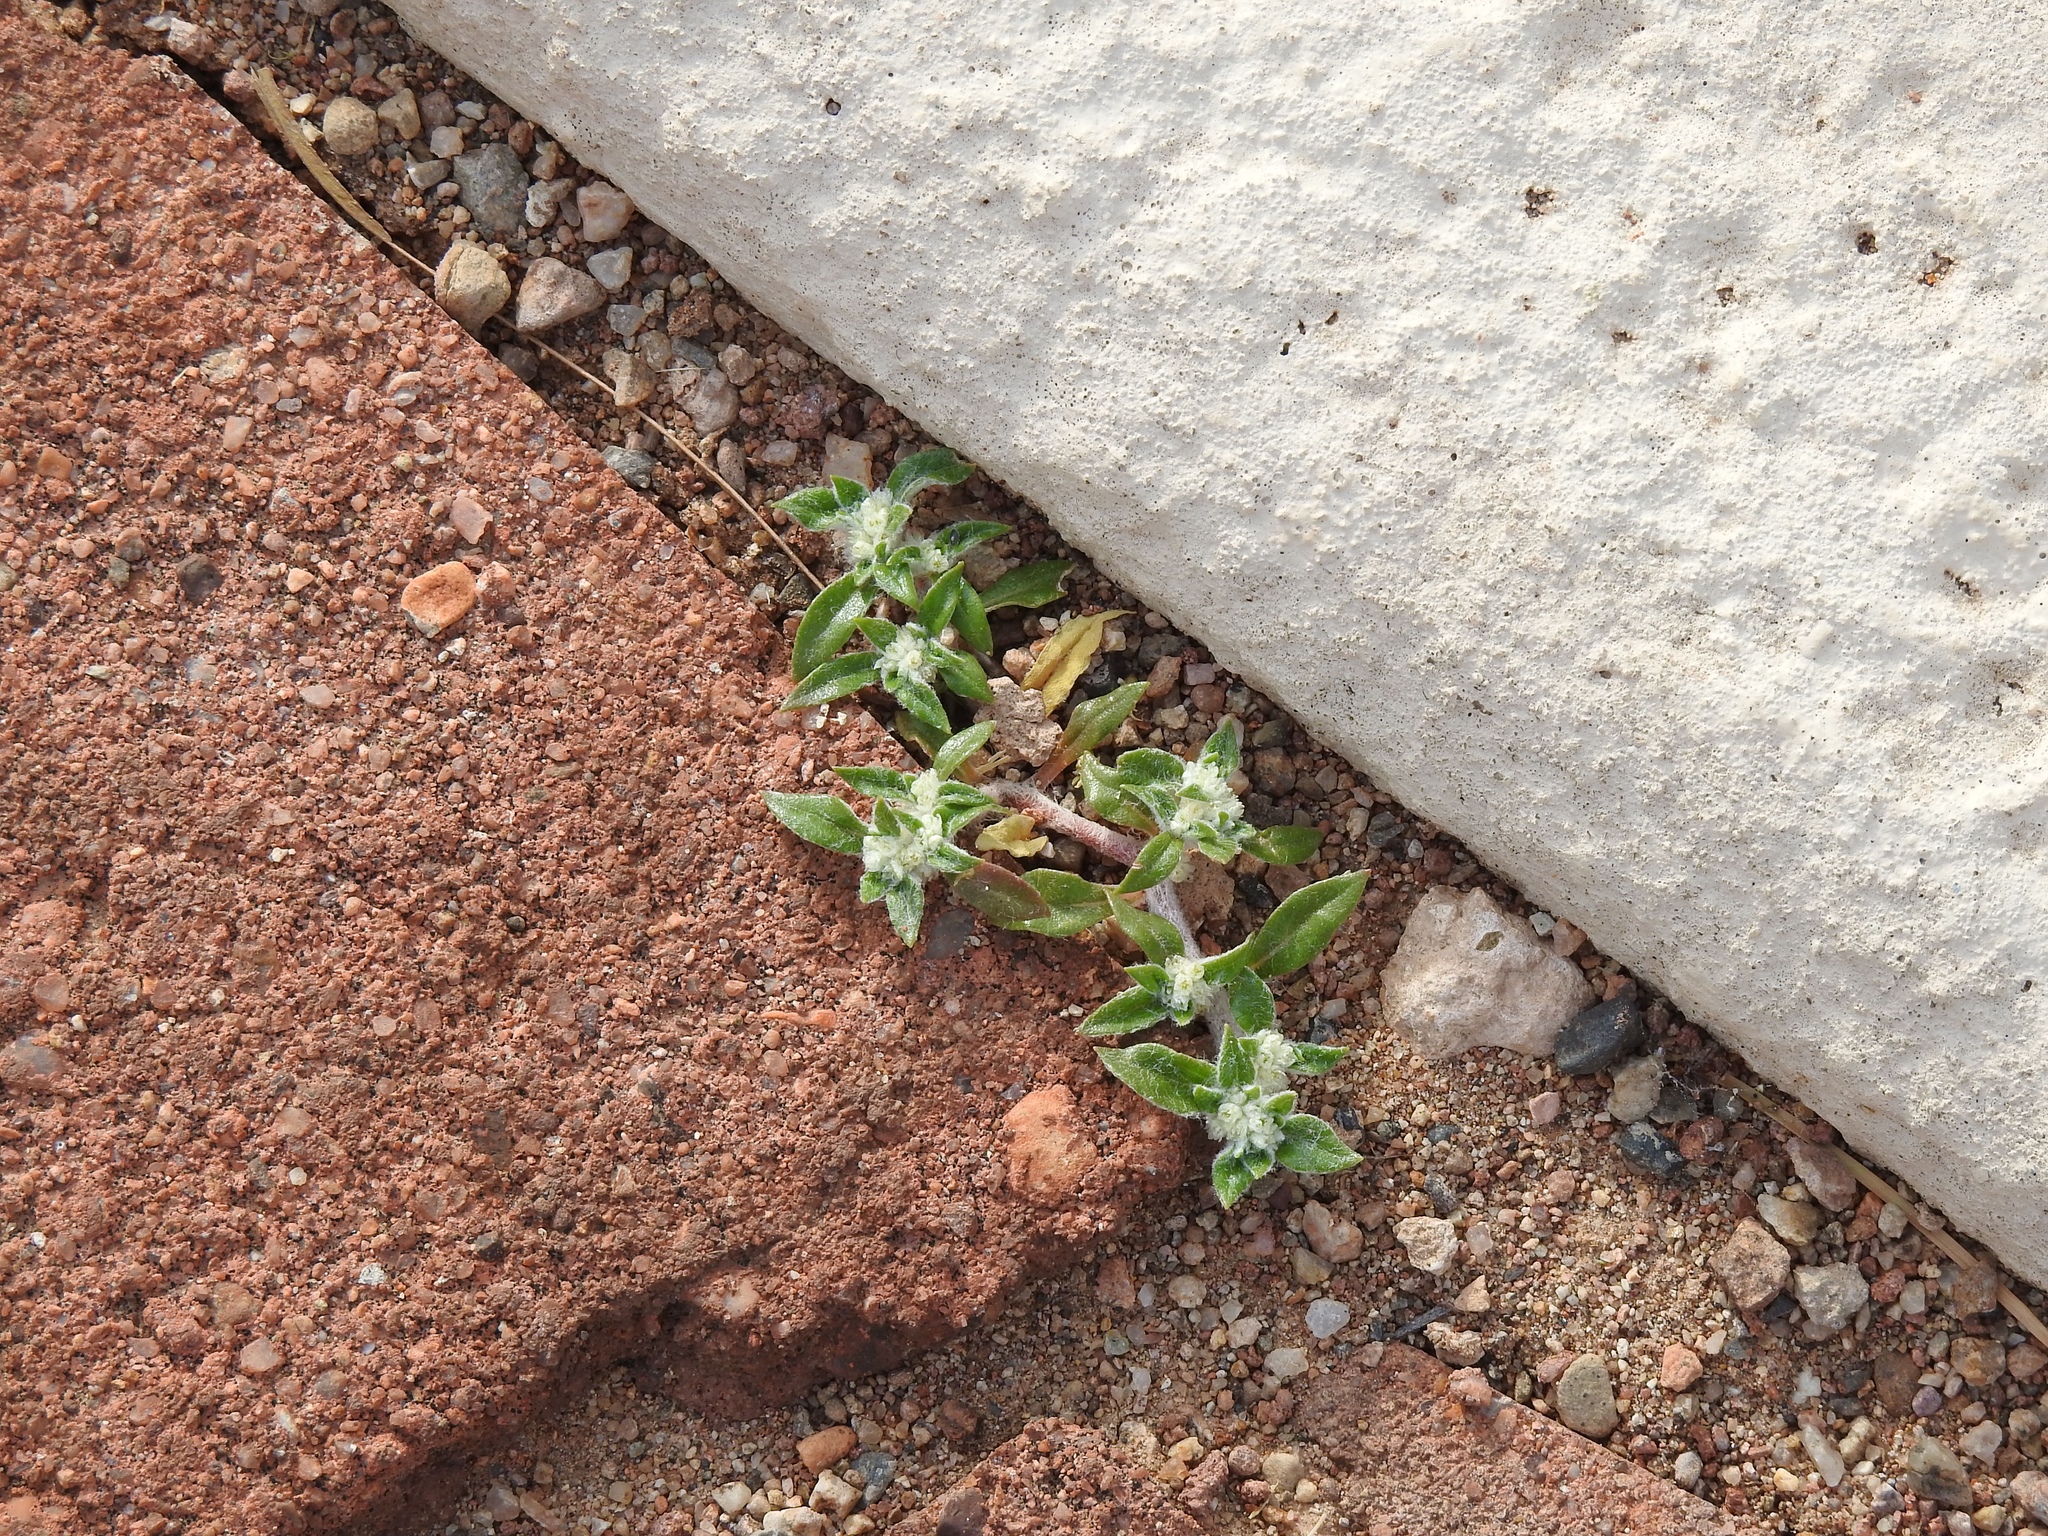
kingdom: Plantae
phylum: Tracheophyta
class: Magnoliopsida
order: Caryophyllales
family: Amaranthaceae
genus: Guilleminea
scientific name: Guilleminea densa
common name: Small matweed
